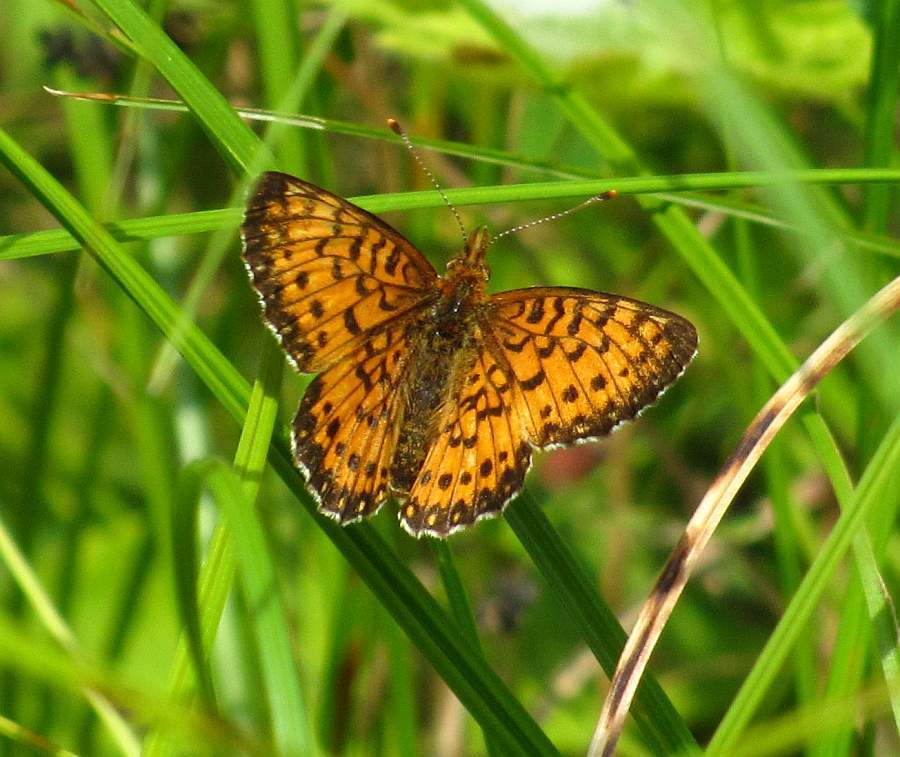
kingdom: Animalia
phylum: Arthropoda
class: Insecta
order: Lepidoptera
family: Nymphalidae
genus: Boloria
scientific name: Boloria
